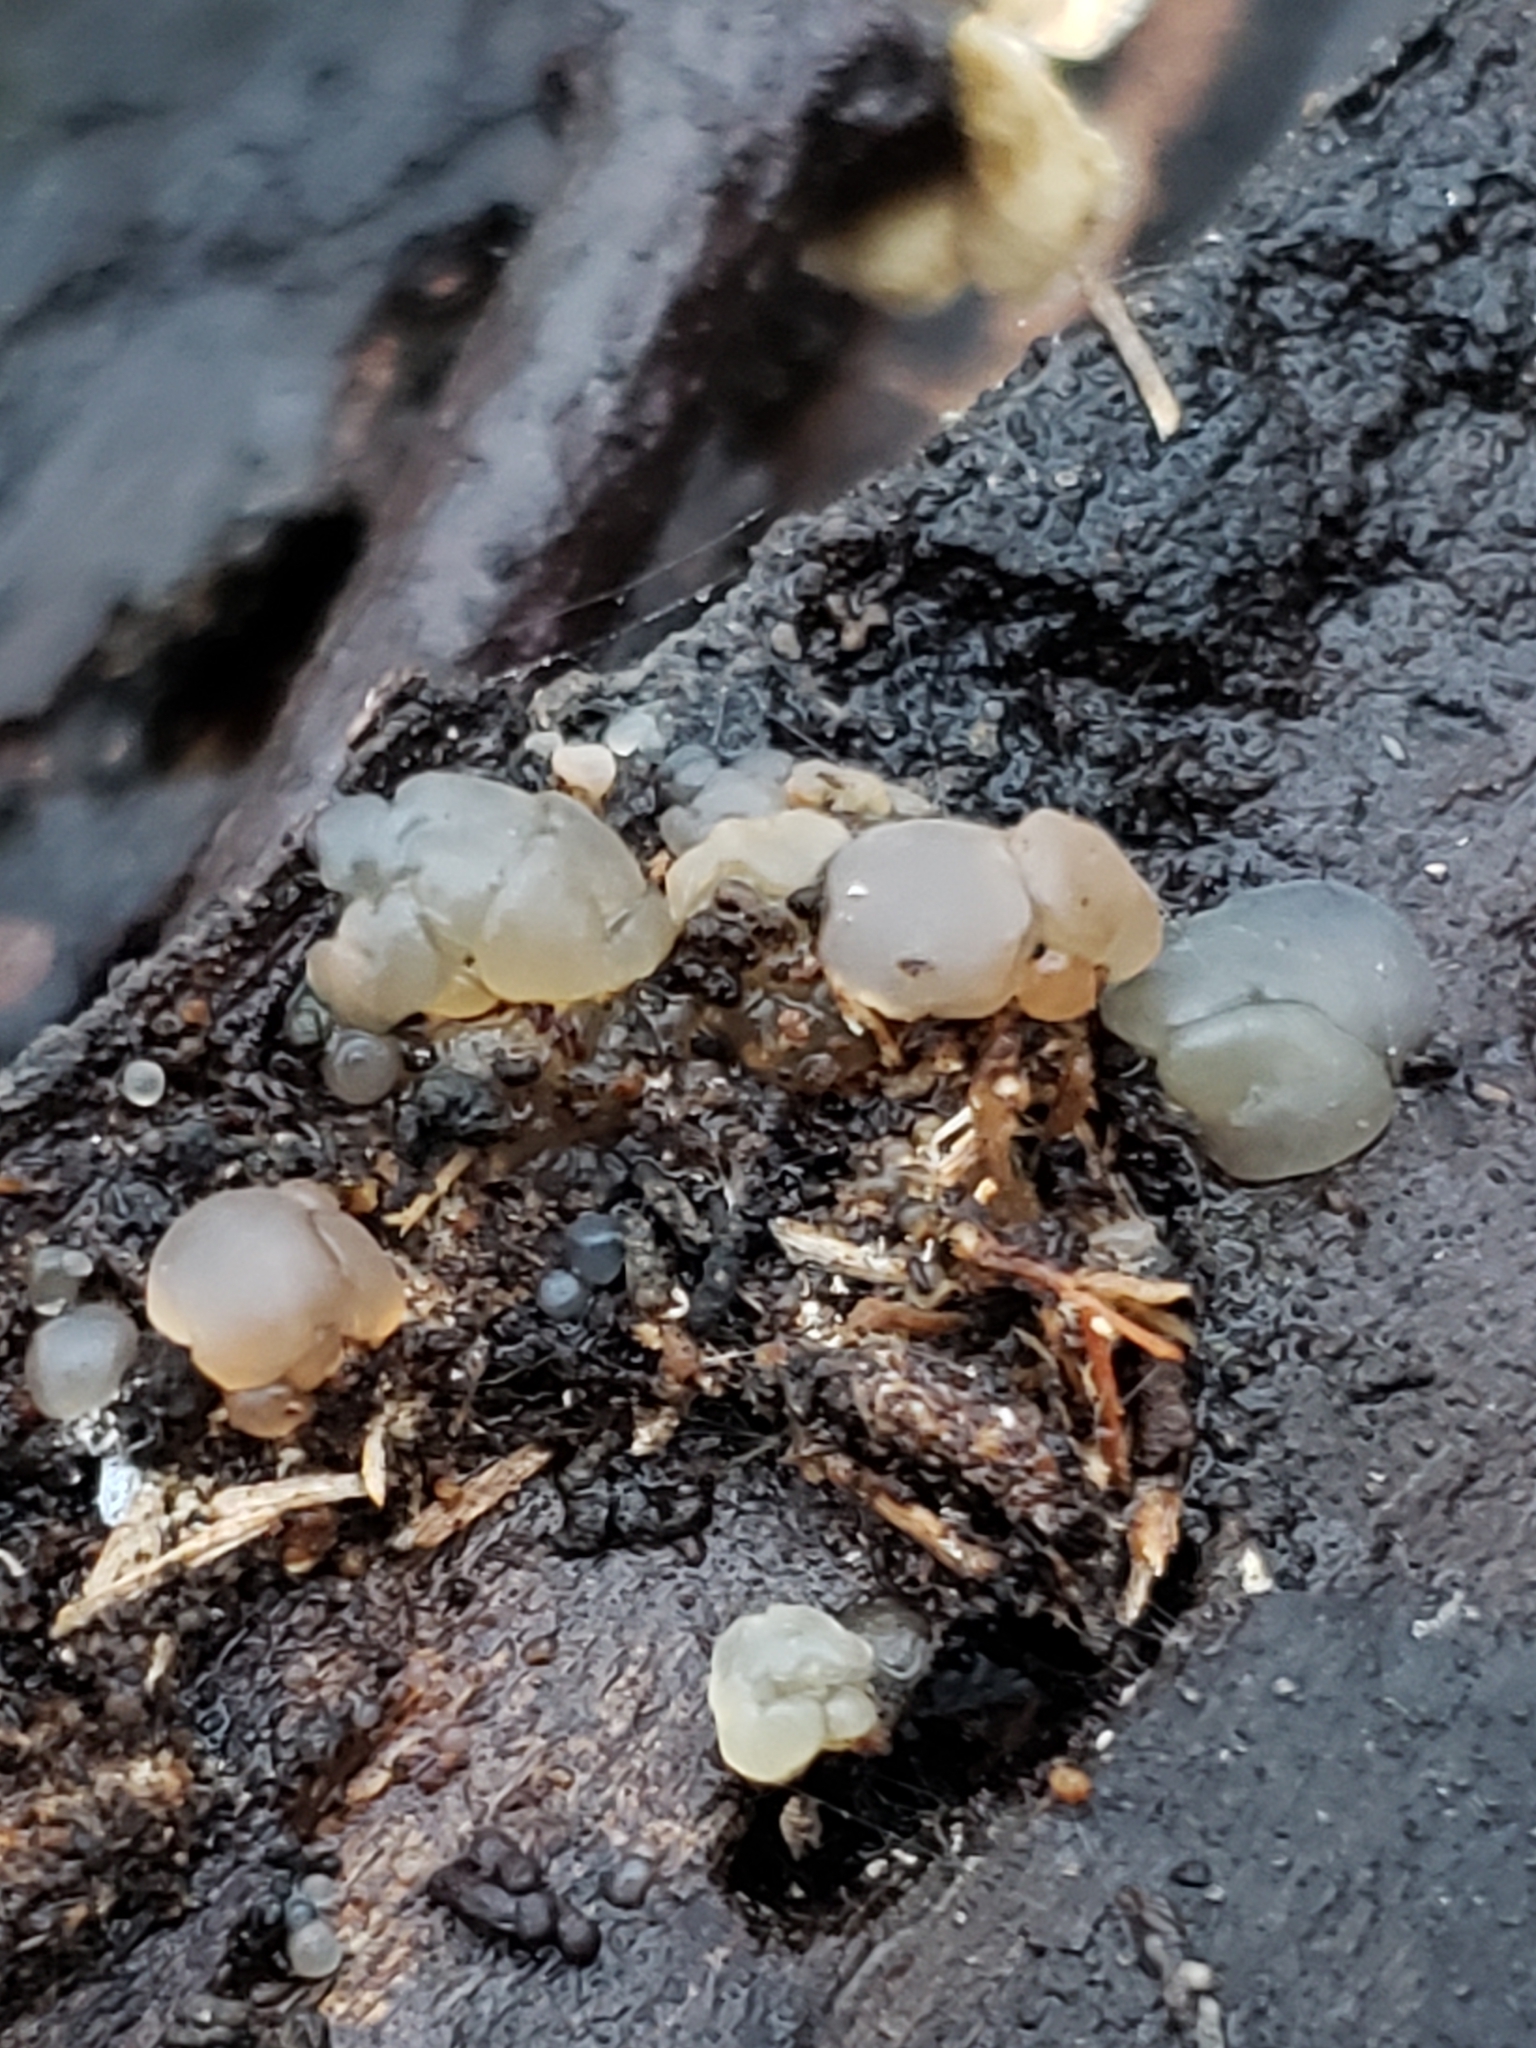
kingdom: Fungi
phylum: Basidiomycota
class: Agaricomycetes
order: Auriculariales
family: Hyaloriaceae
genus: Myxarium
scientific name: Myxarium nucleatum
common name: Crystal brain fungus
